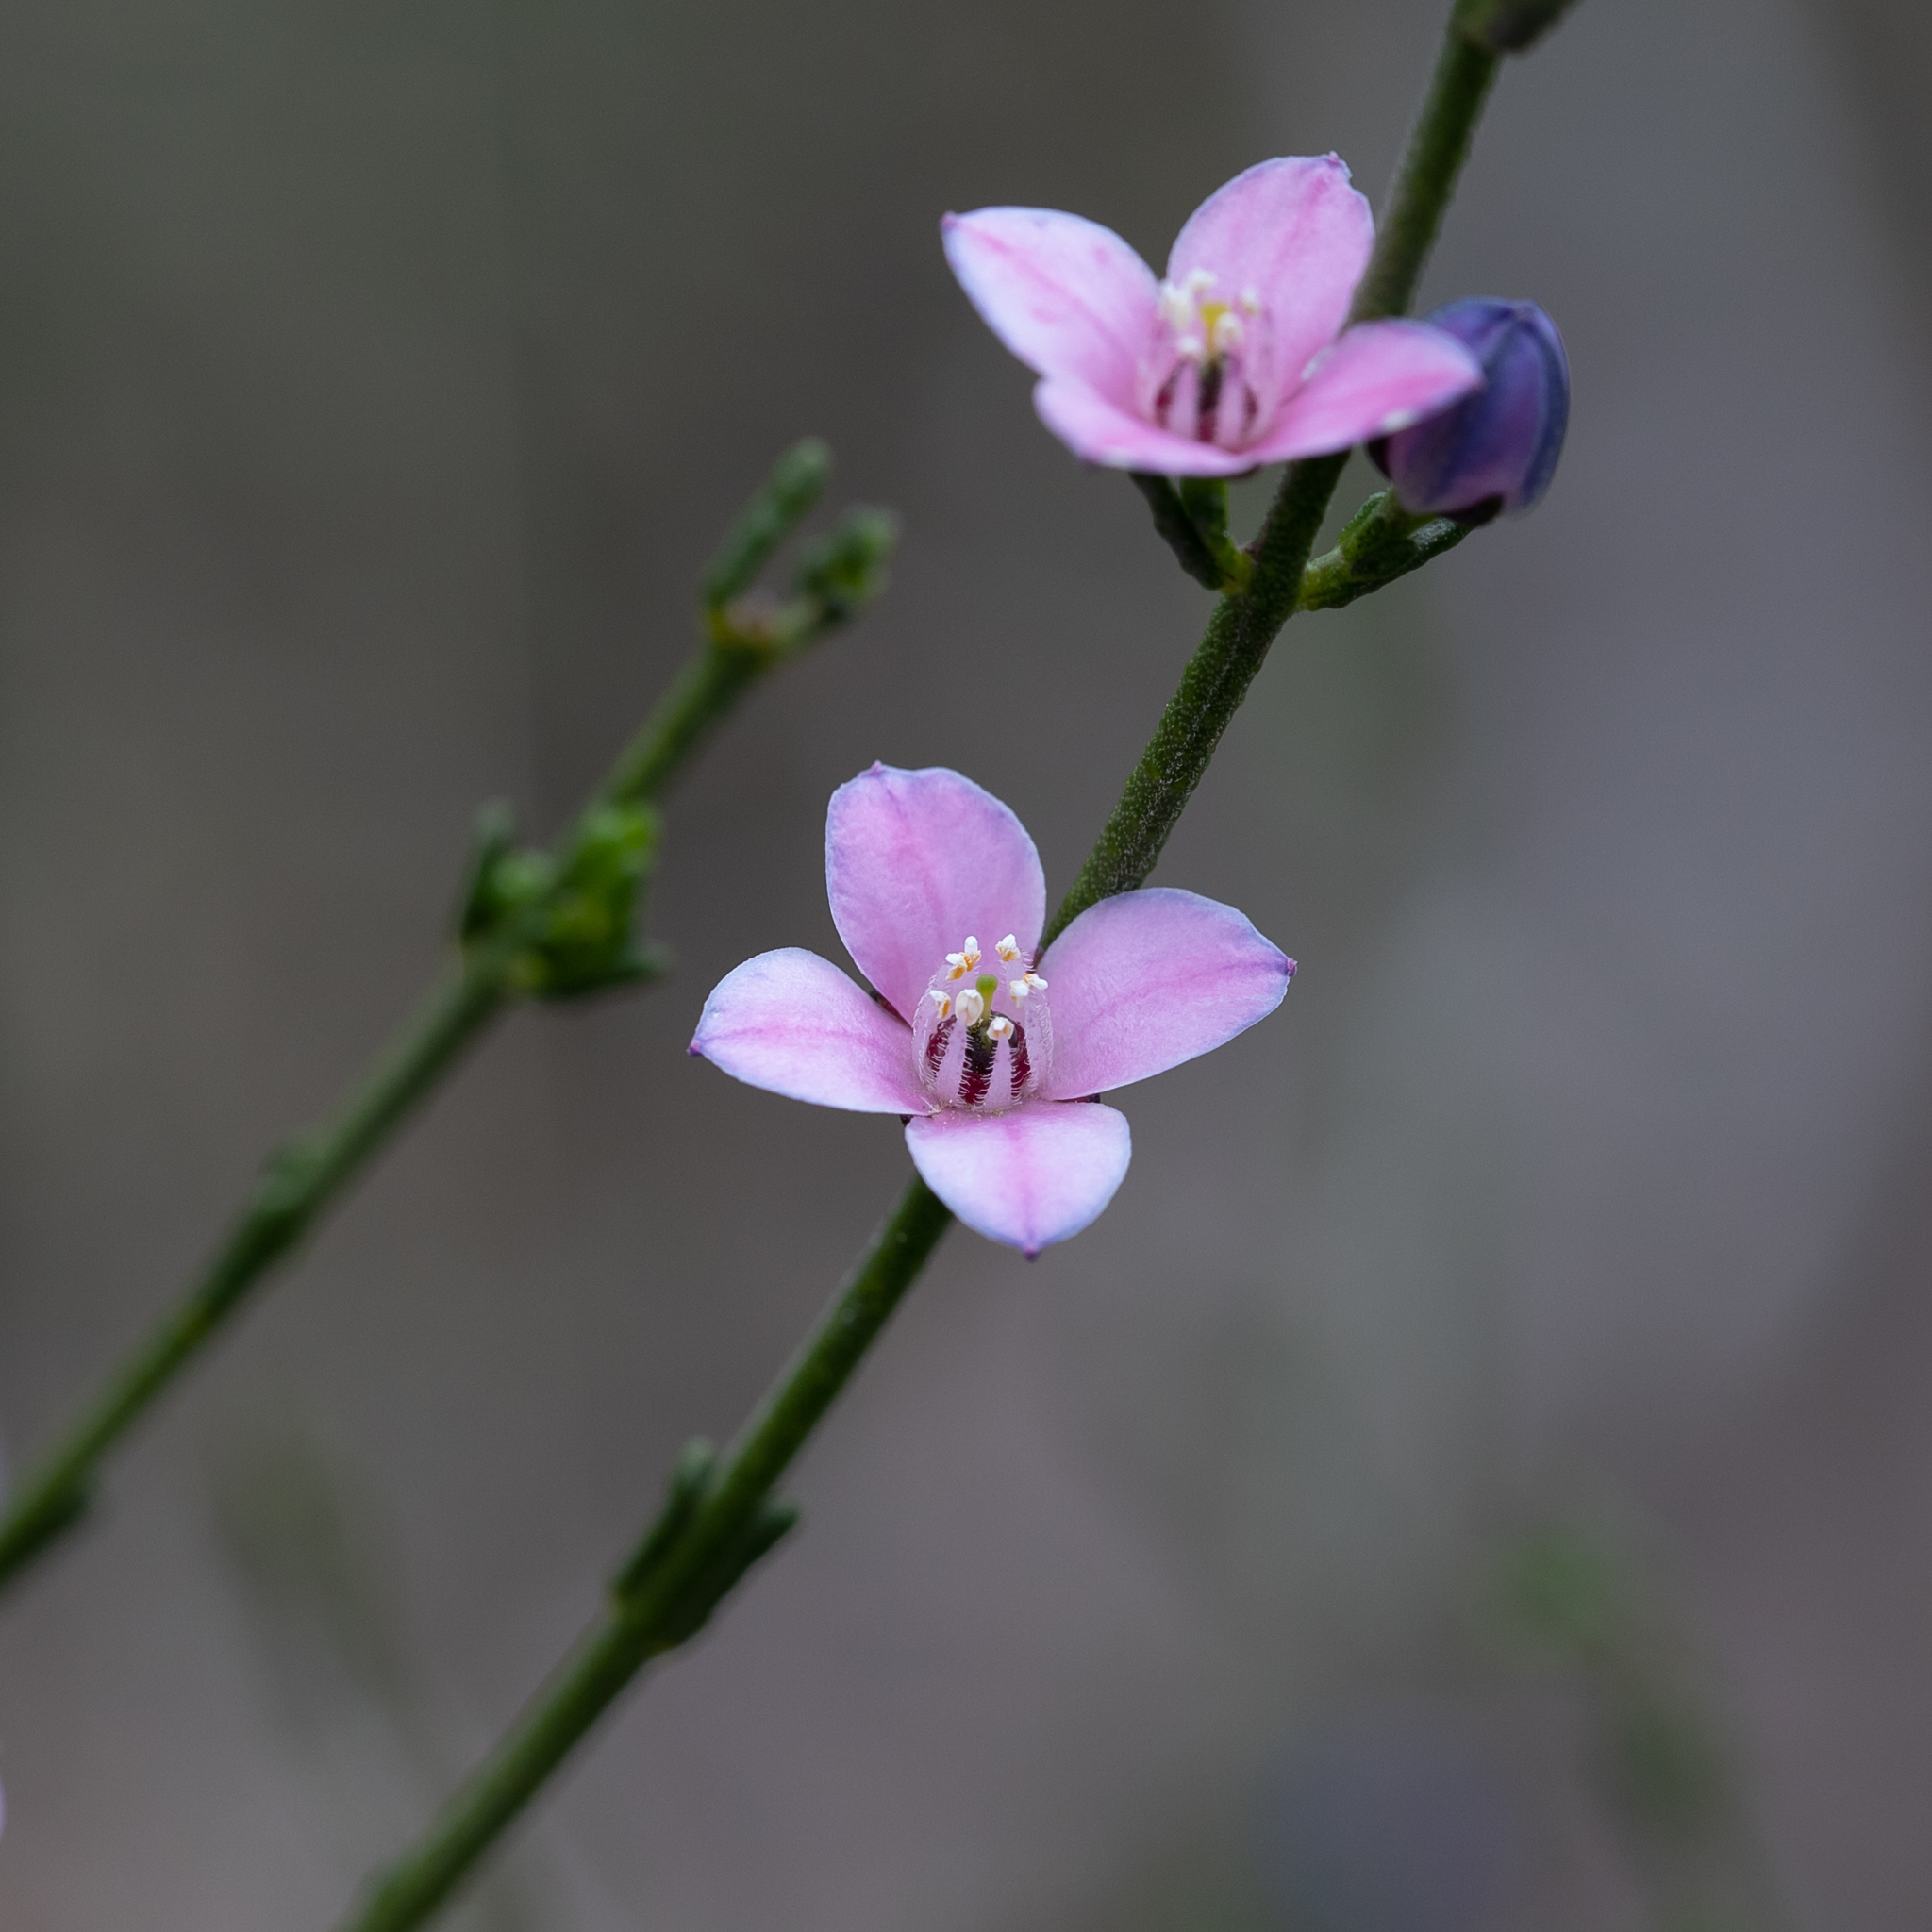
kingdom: Plantae
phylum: Tracheophyta
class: Magnoliopsida
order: Sapindales
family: Rutaceae
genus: Cyanothamnus
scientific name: Cyanothamnus coerulescens
